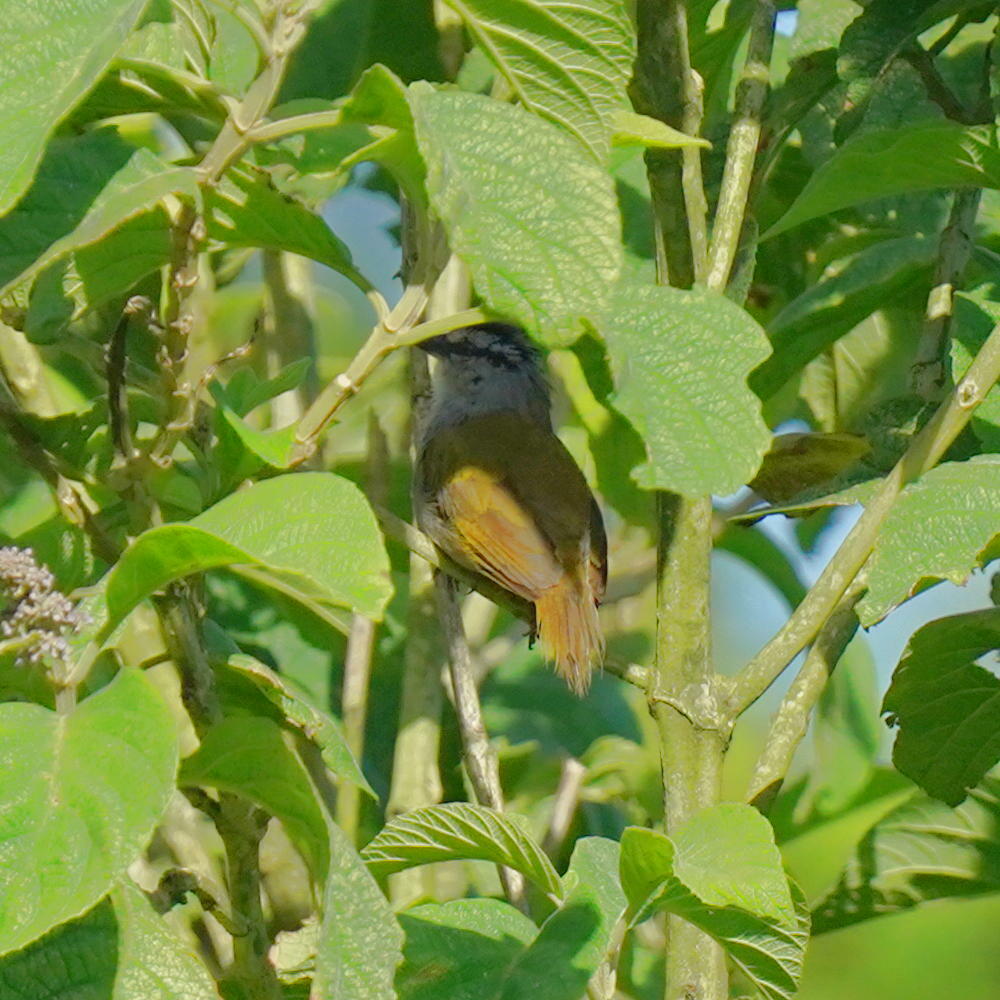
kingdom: Animalia
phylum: Chordata
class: Aves
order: Passeriformes
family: Passerellidae
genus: Arremonops
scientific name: Arremonops conirostris
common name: Black-striped sparrow
